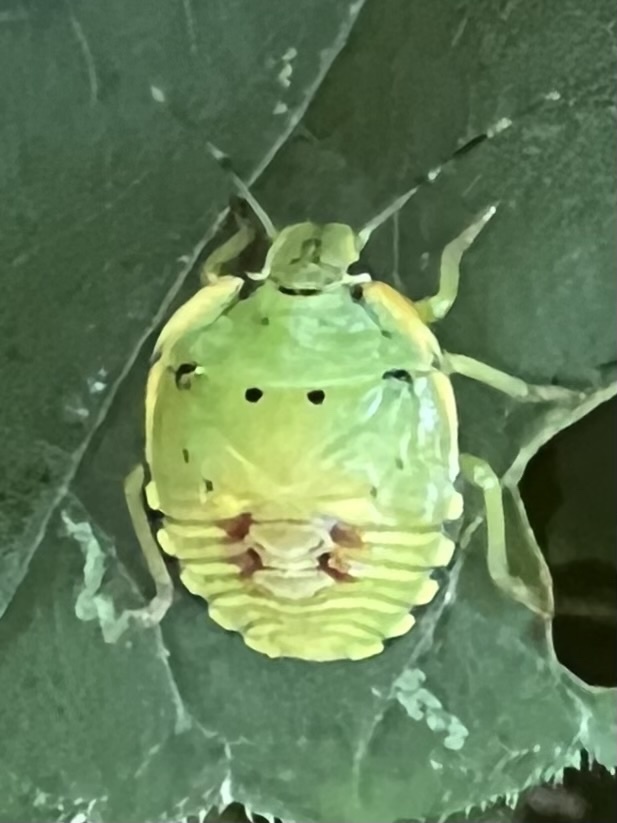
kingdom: Animalia
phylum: Arthropoda
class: Insecta
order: Hemiptera
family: Pentatomidae
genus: Chinavia
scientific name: Chinavia hilaris
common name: Green stink bug
